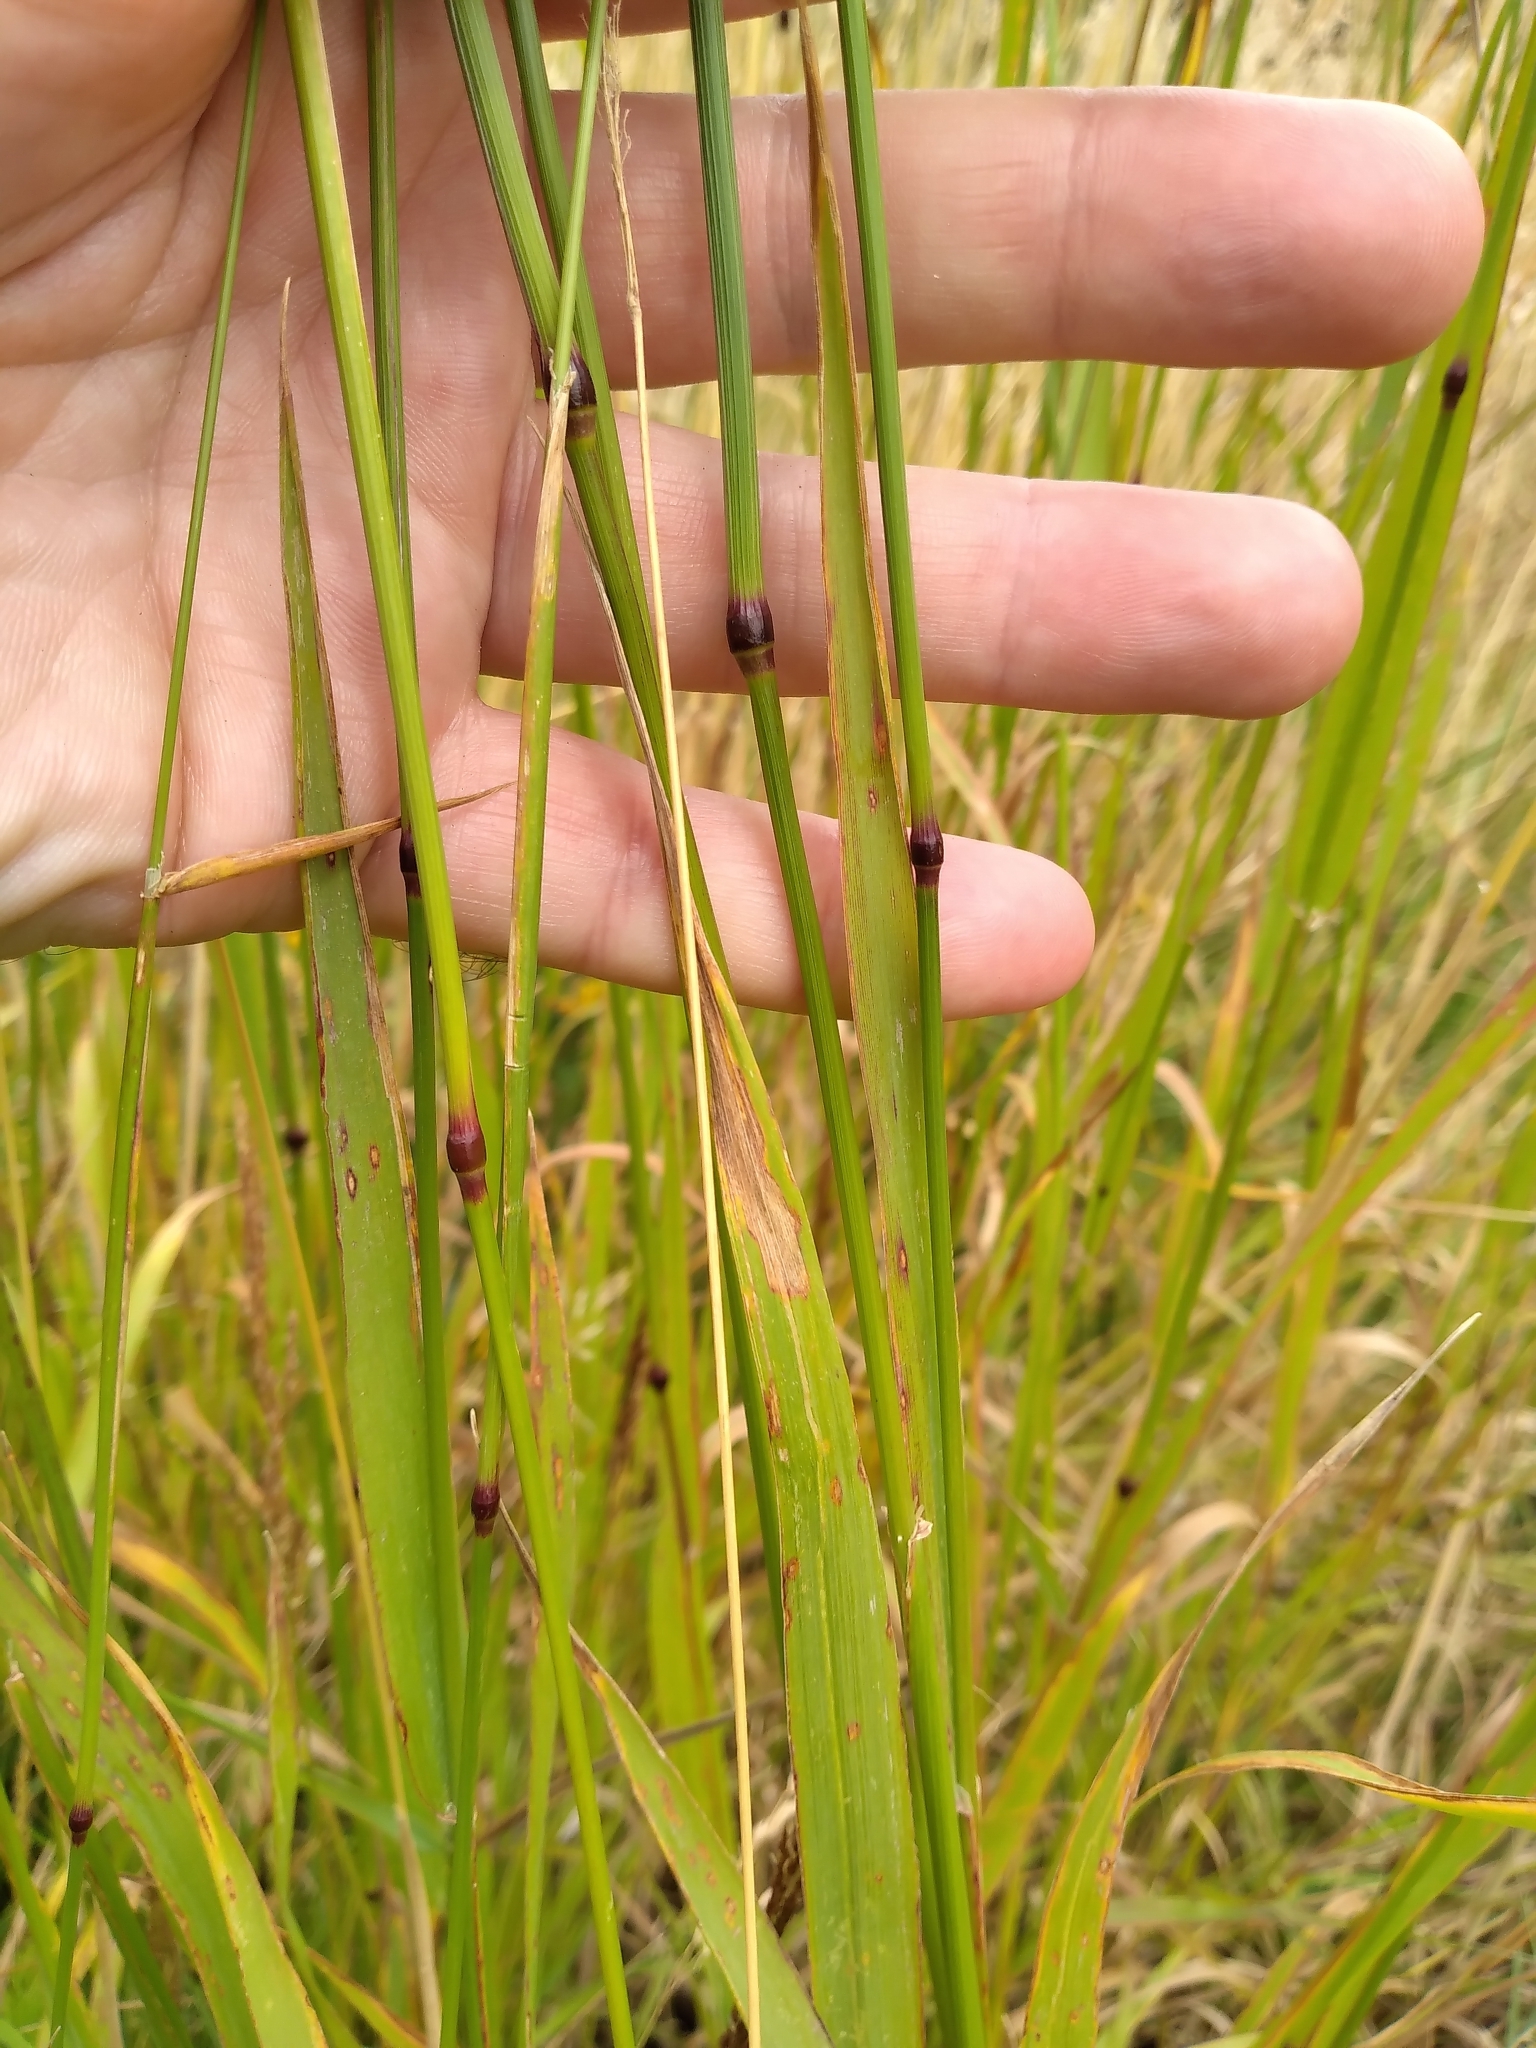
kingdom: Plantae
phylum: Tracheophyta
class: Liliopsida
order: Poales
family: Poaceae
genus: Phleum
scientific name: Phleum pratense
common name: Timothy grass
